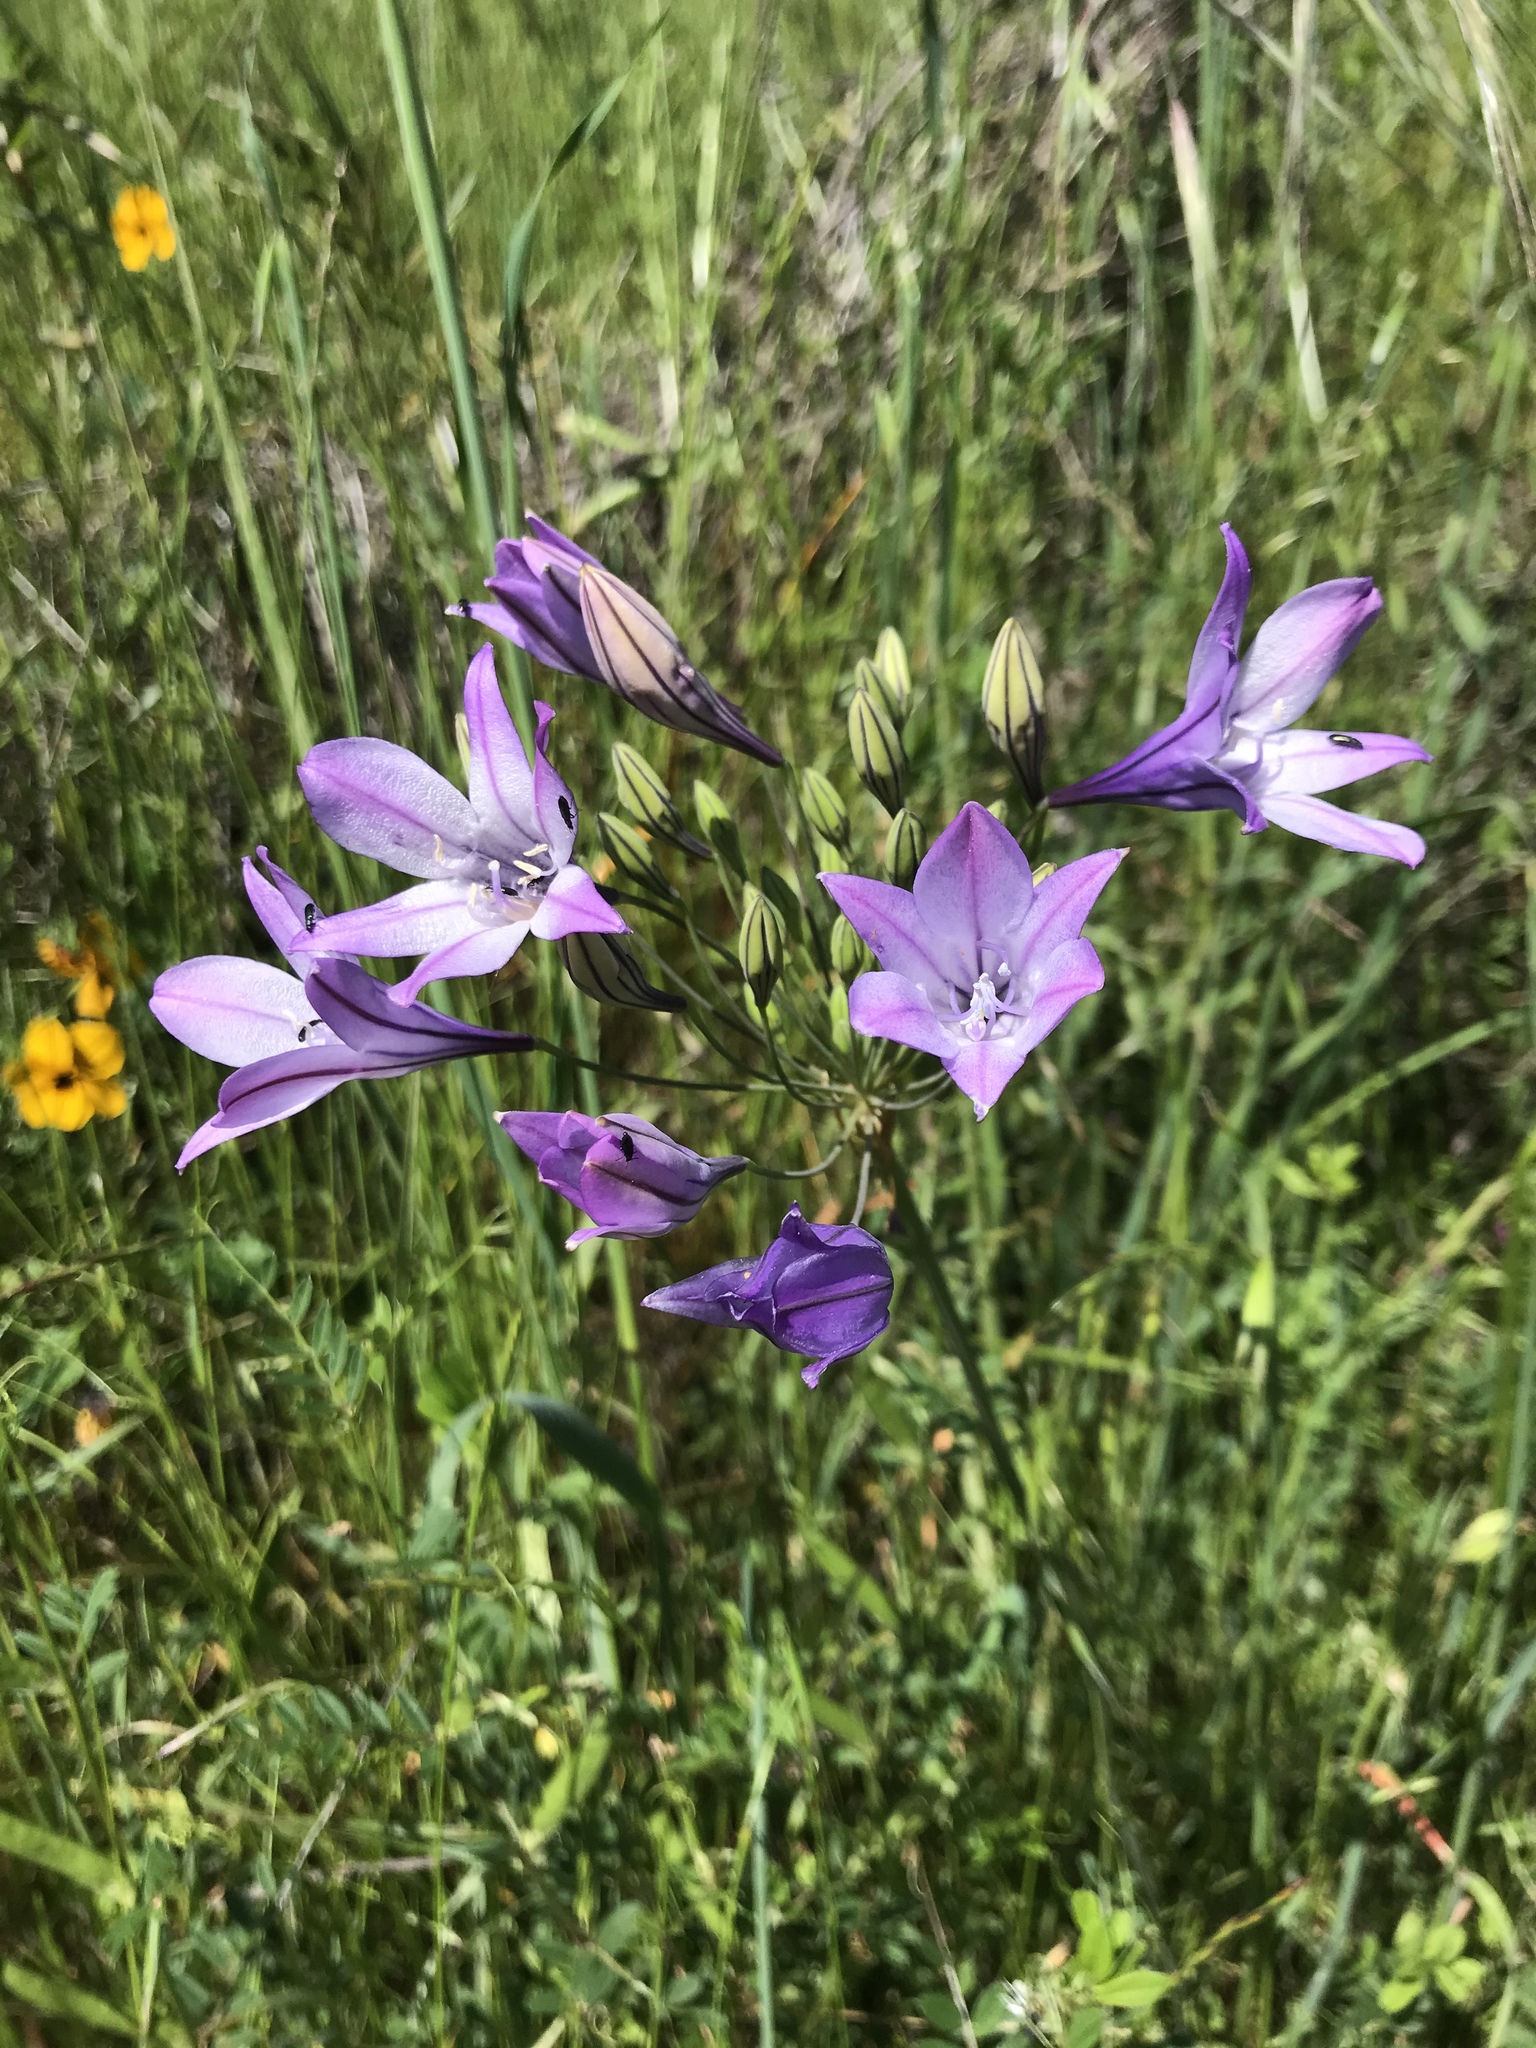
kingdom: Plantae
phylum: Tracheophyta
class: Liliopsida
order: Asparagales
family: Asparagaceae
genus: Triteleia
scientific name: Triteleia laxa
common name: Triplet-lily
